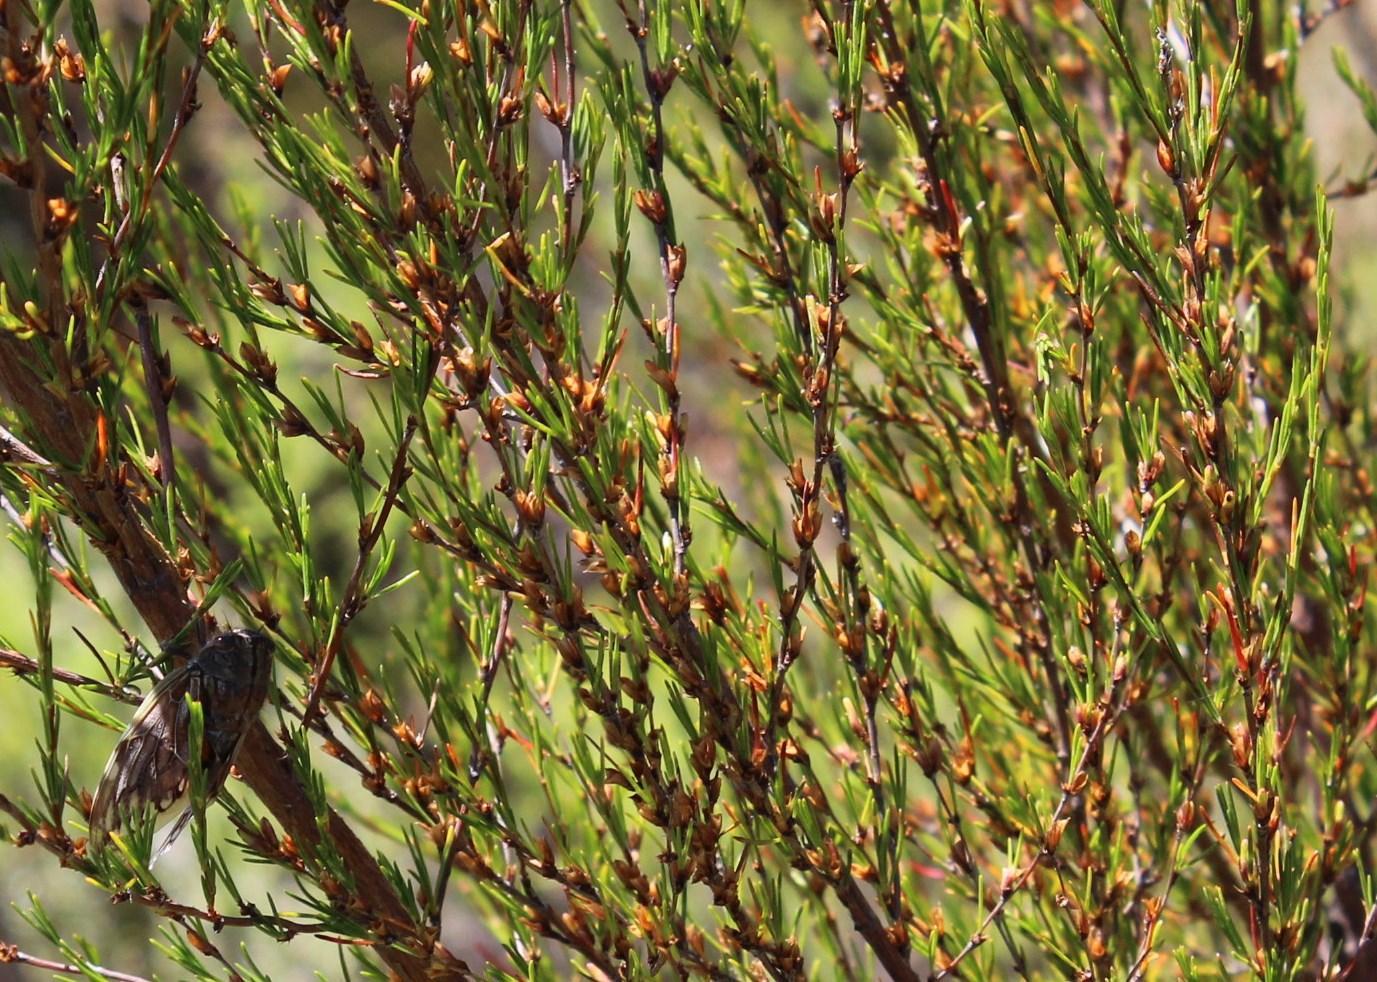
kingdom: Plantae
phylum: Tracheophyta
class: Magnoliopsida
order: Rosales
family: Rosaceae
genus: Cliffortia
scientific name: Cliffortia erectisepala
